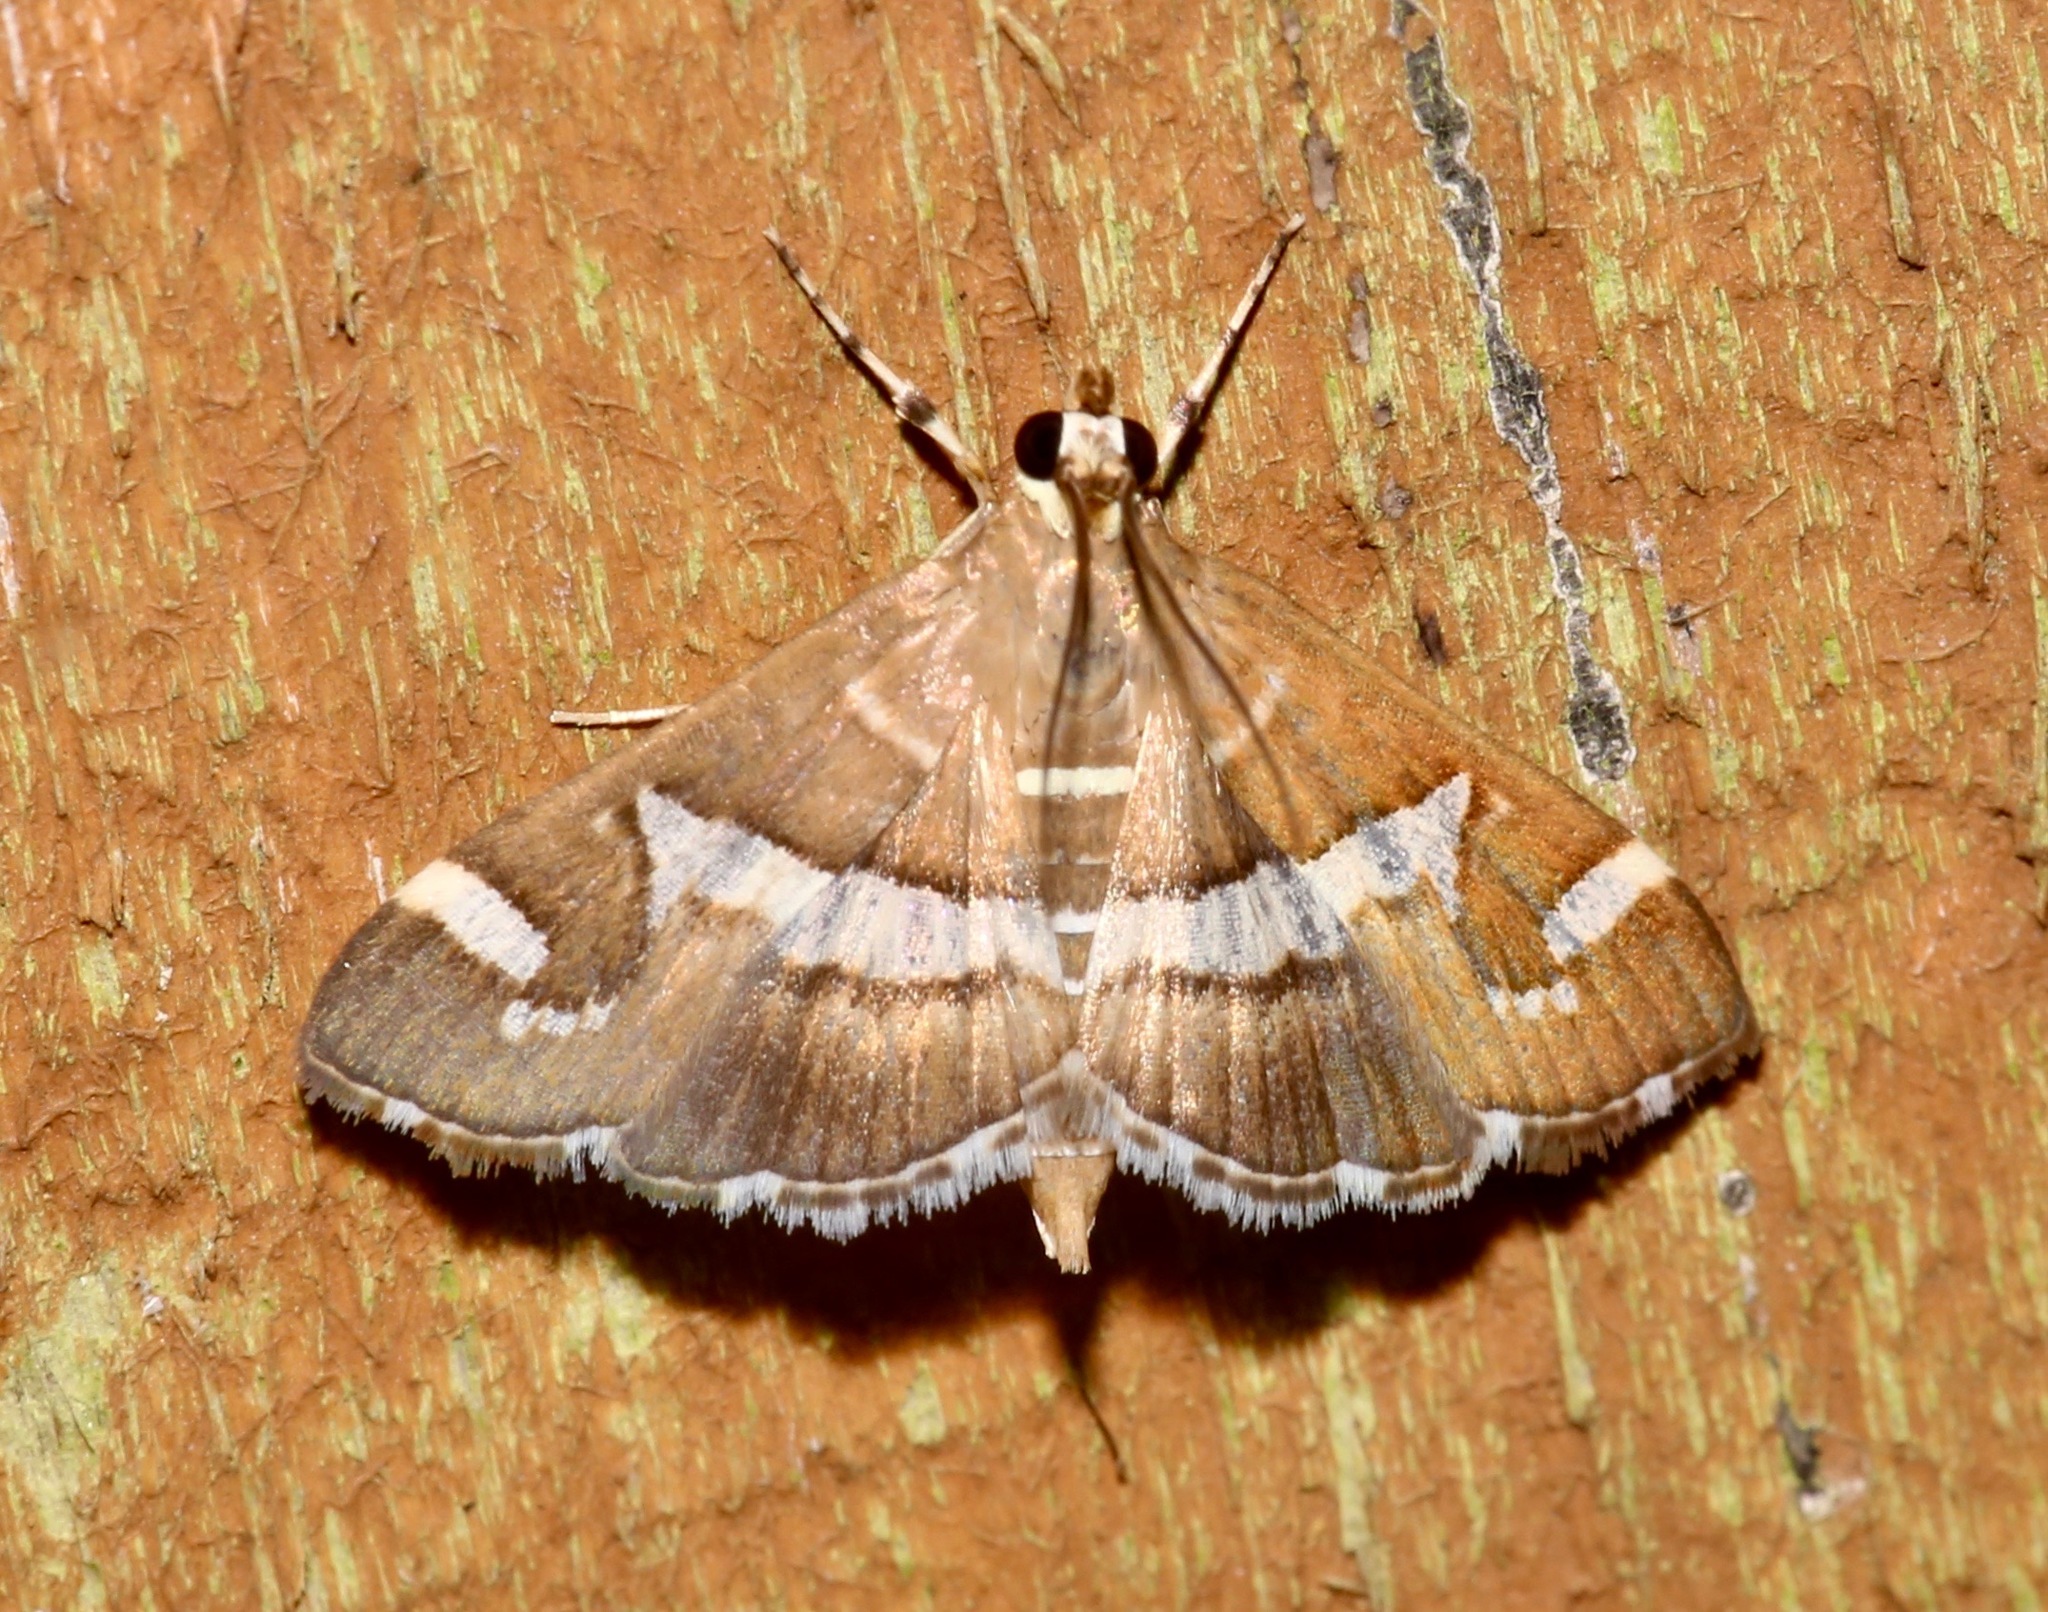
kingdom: Animalia
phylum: Arthropoda
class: Insecta
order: Lepidoptera
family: Crambidae
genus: Spoladea
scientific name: Spoladea recurvalis
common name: Beet webworm moth
